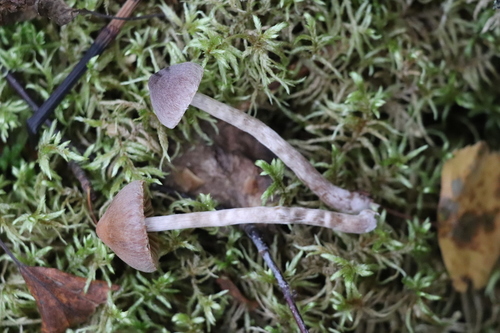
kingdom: Fungi
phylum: Basidiomycota
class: Agaricomycetes
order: Agaricales
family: Cortinariaceae
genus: Cortinarius
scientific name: Cortinarius
